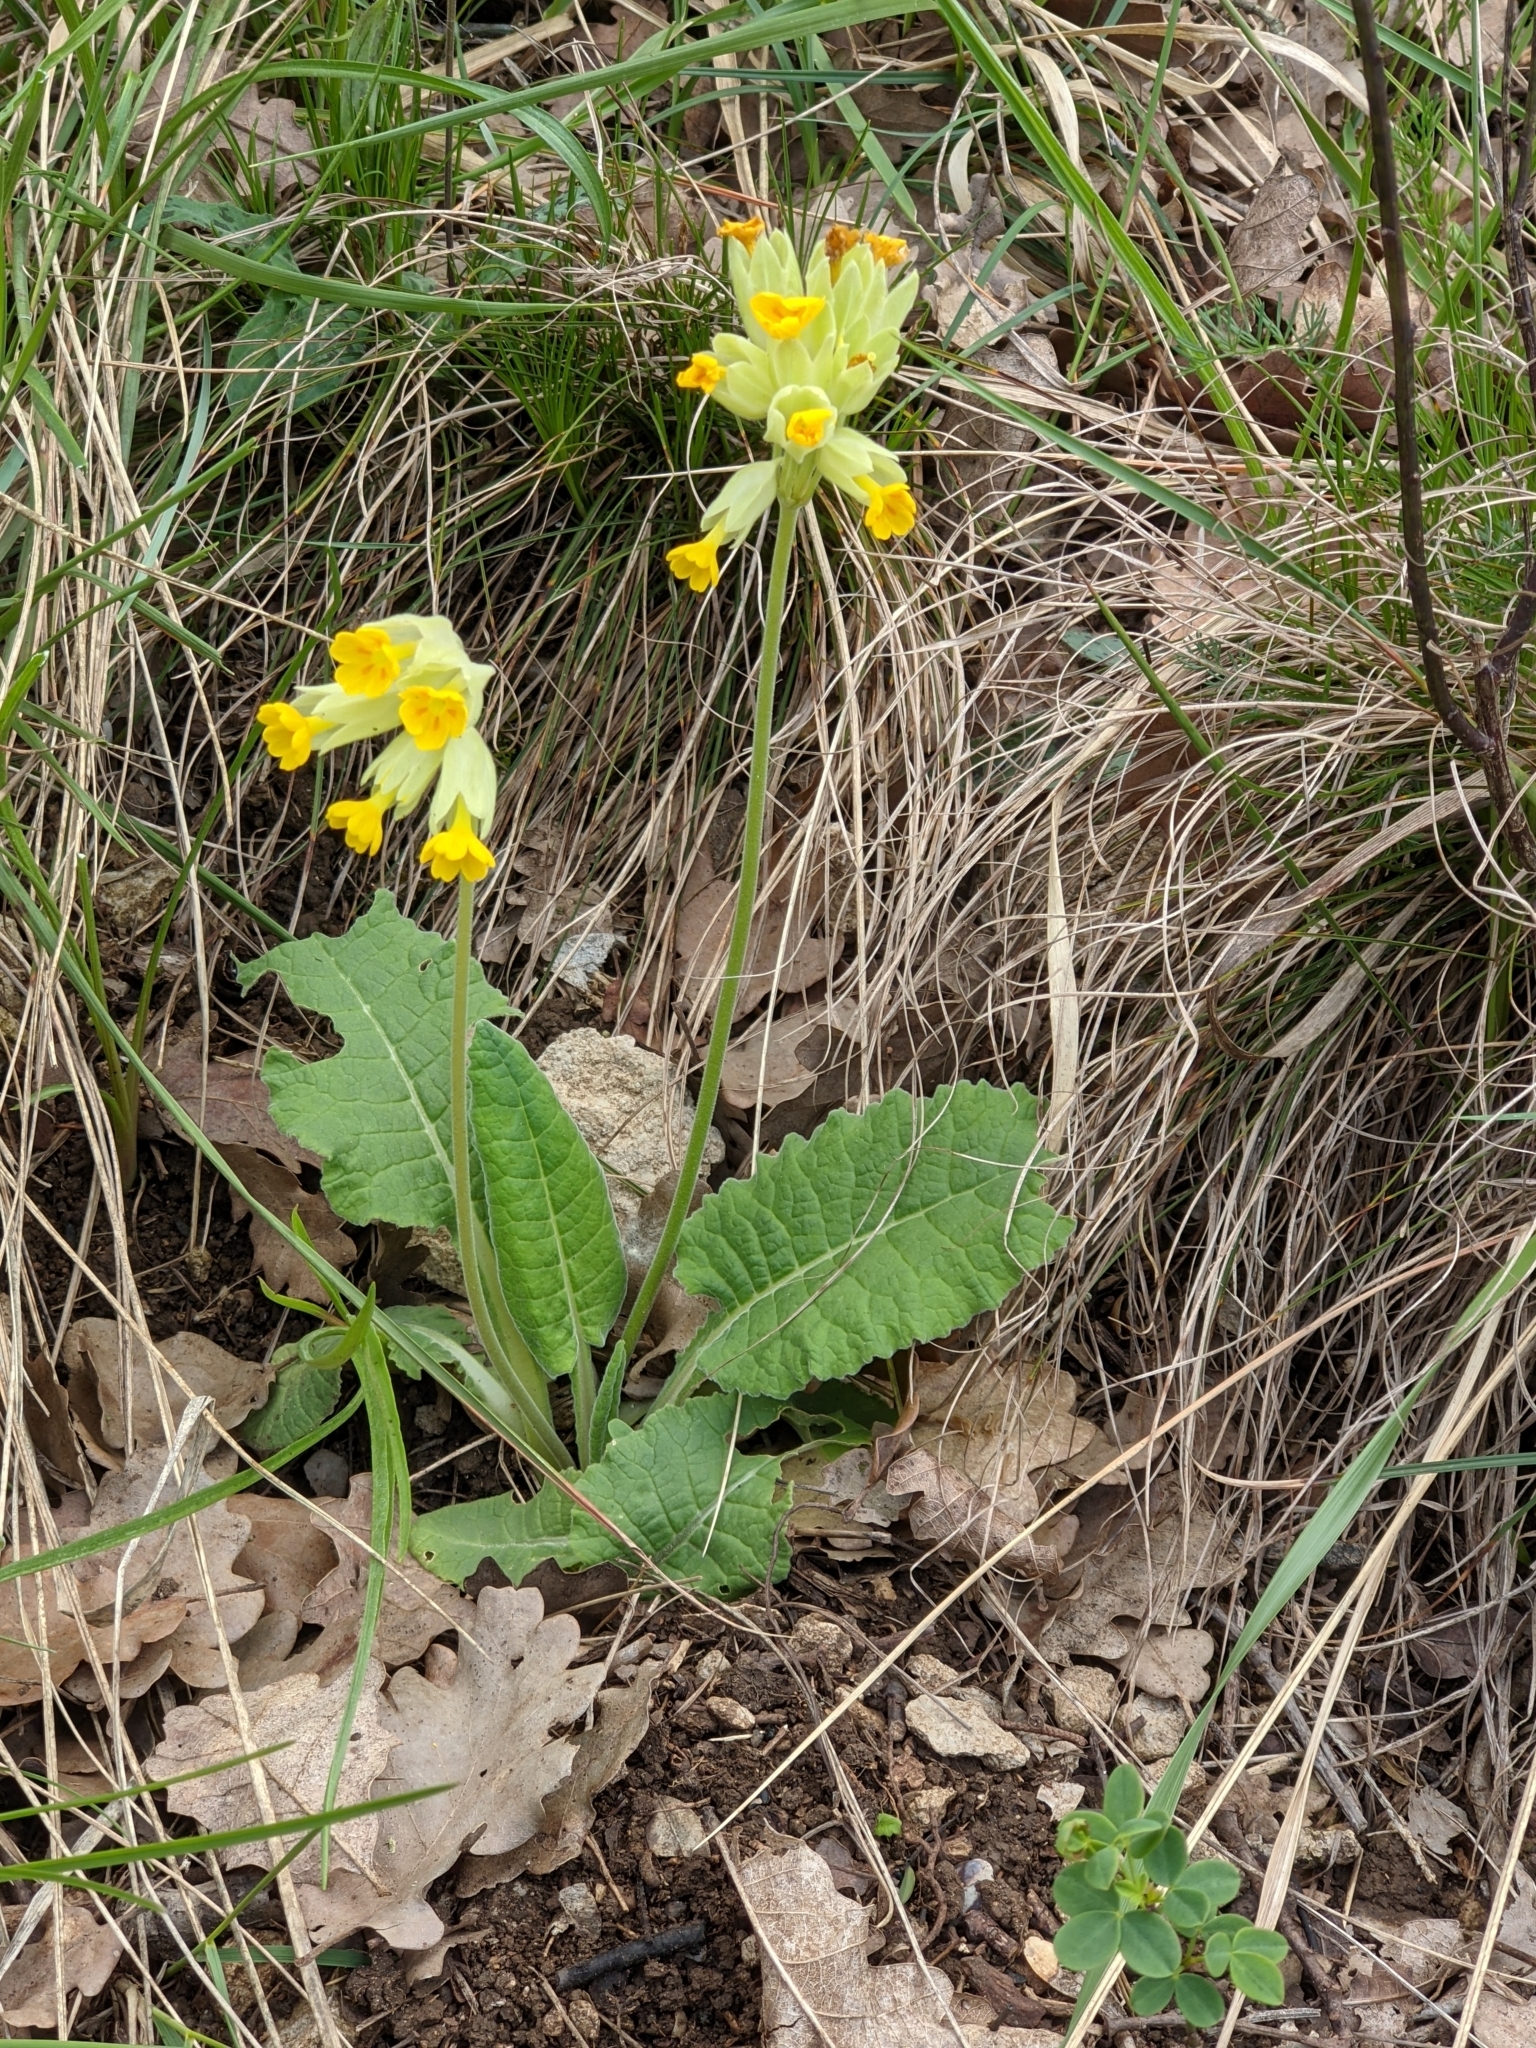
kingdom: Plantae
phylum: Tracheophyta
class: Magnoliopsida
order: Ericales
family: Primulaceae
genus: Primula
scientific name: Primula veris
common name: Cowslip
